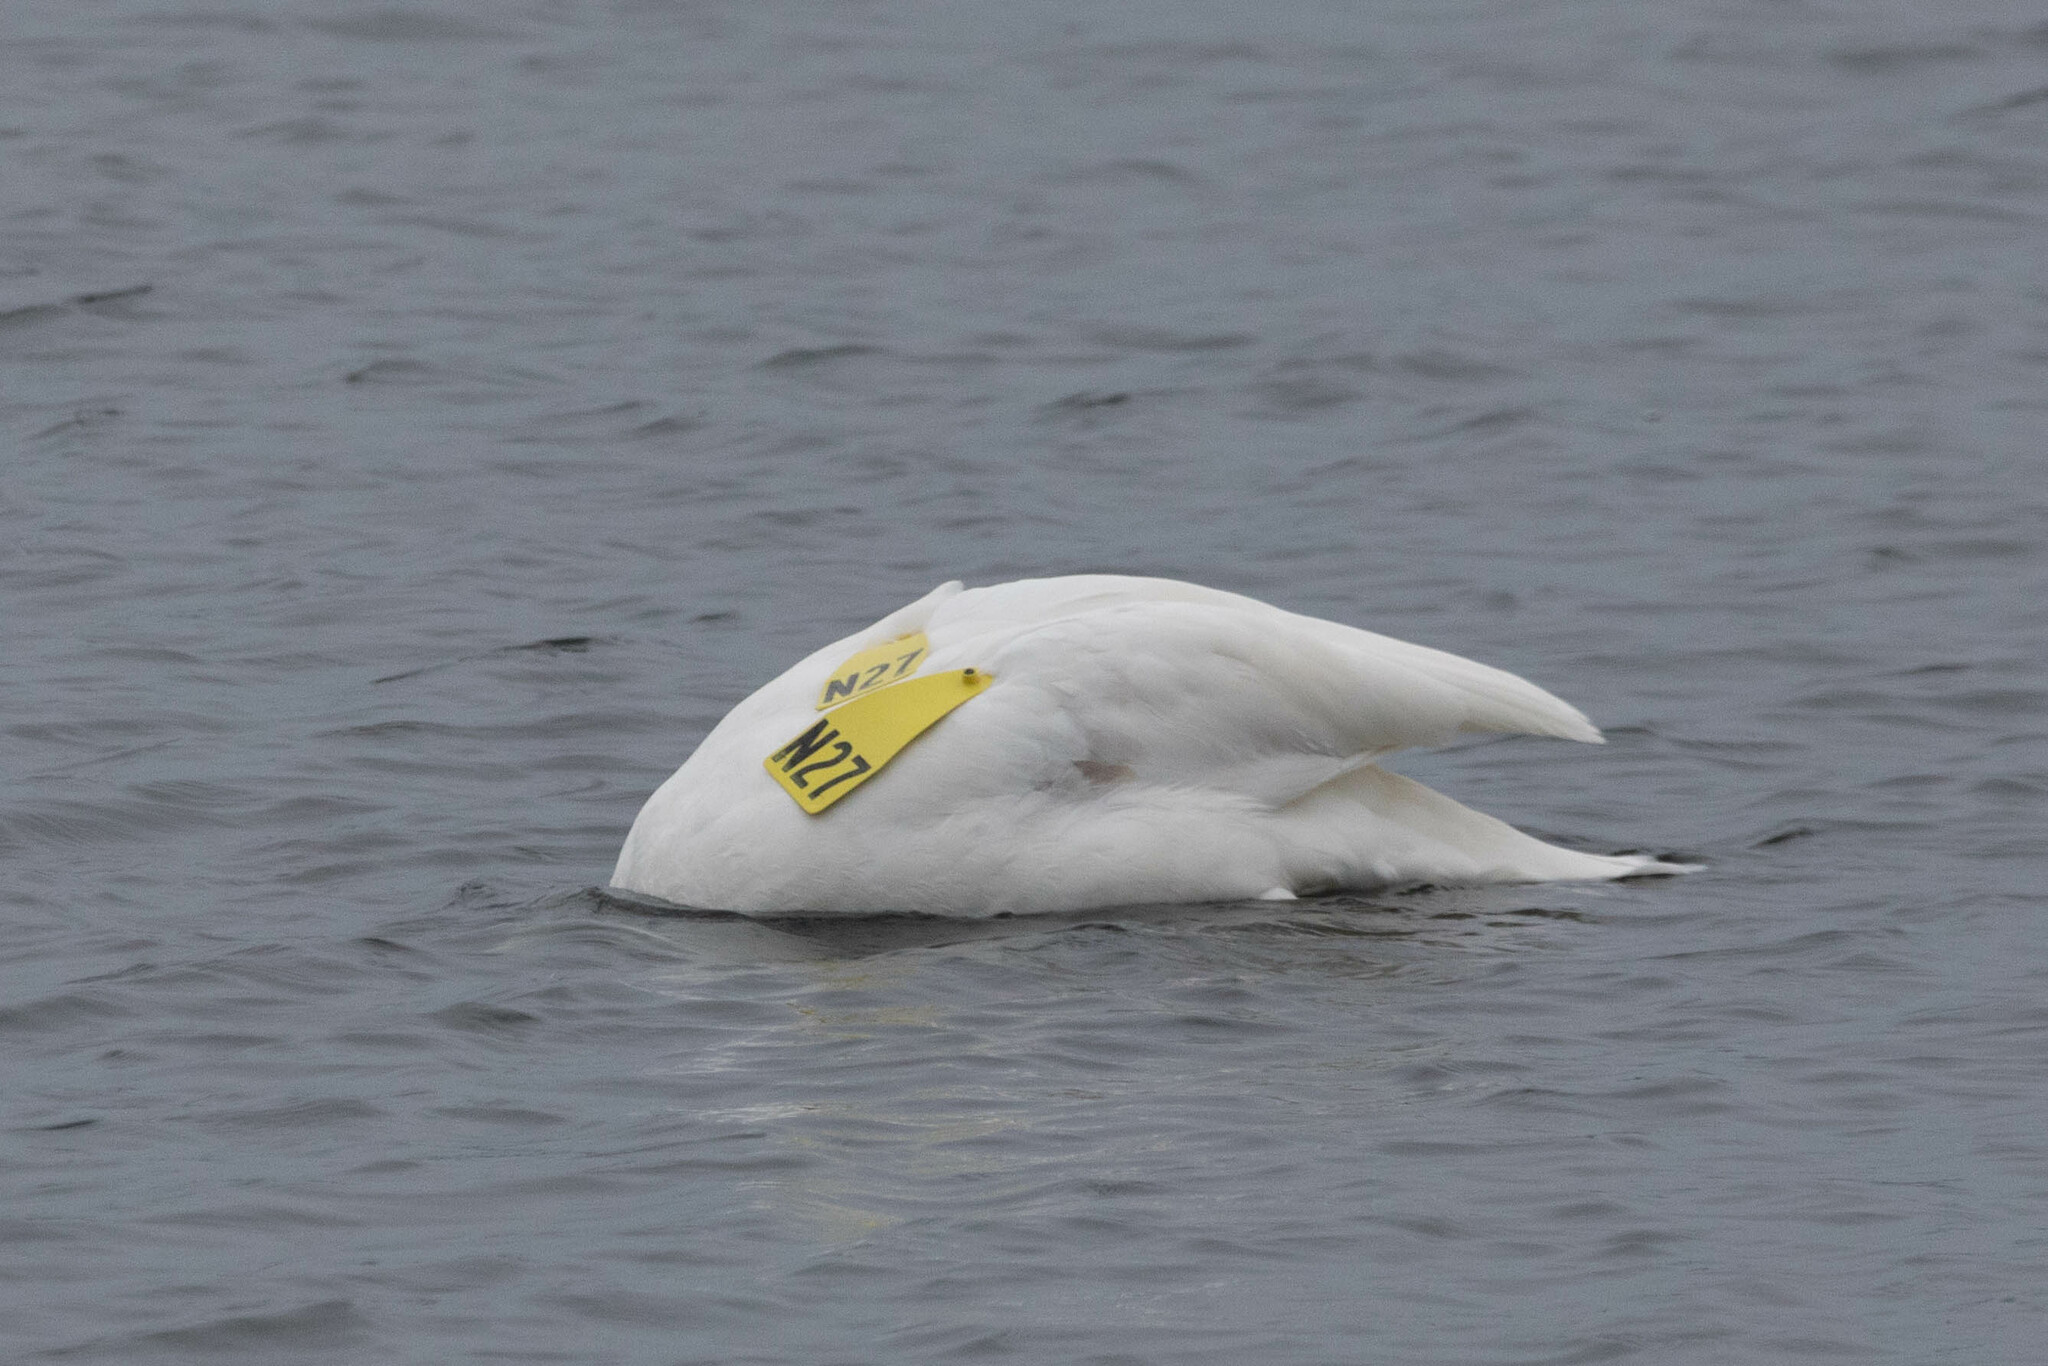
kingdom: Animalia
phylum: Chordata
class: Aves
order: Anseriformes
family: Anatidae
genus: Cygnus
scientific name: Cygnus buccinator
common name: Trumpeter swan
